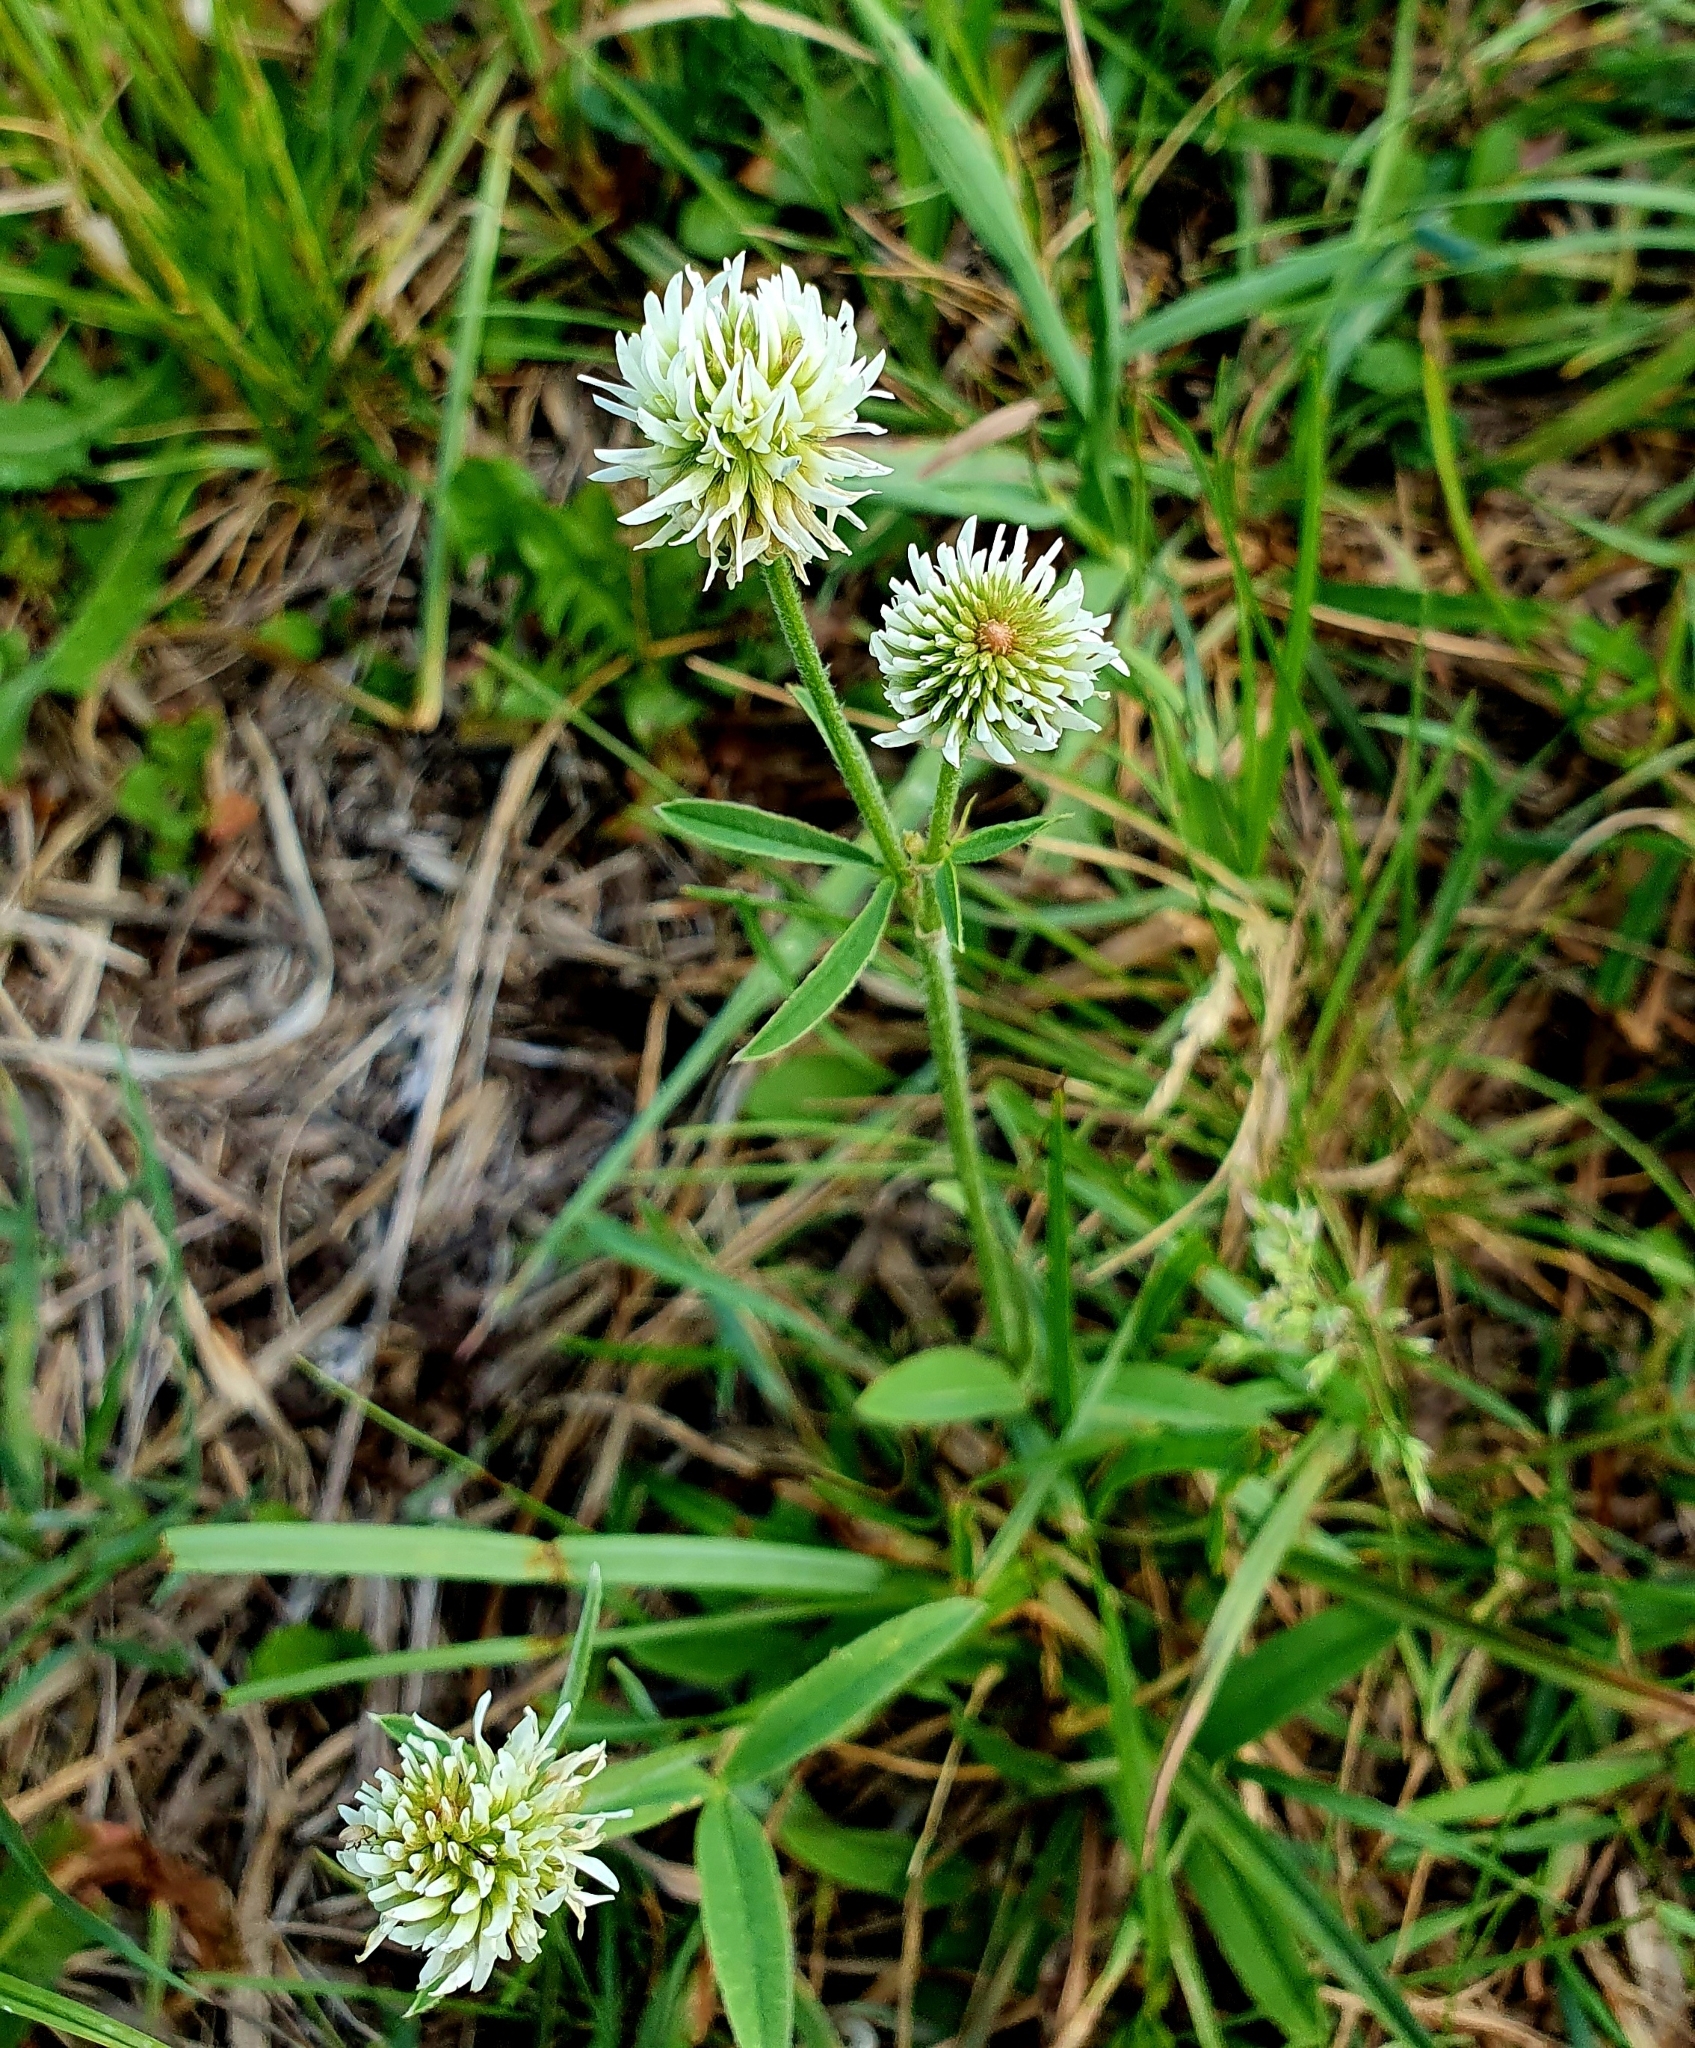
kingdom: Plantae
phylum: Tracheophyta
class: Magnoliopsida
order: Fabales
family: Fabaceae
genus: Trifolium
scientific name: Trifolium montanum
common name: Mountain clover
